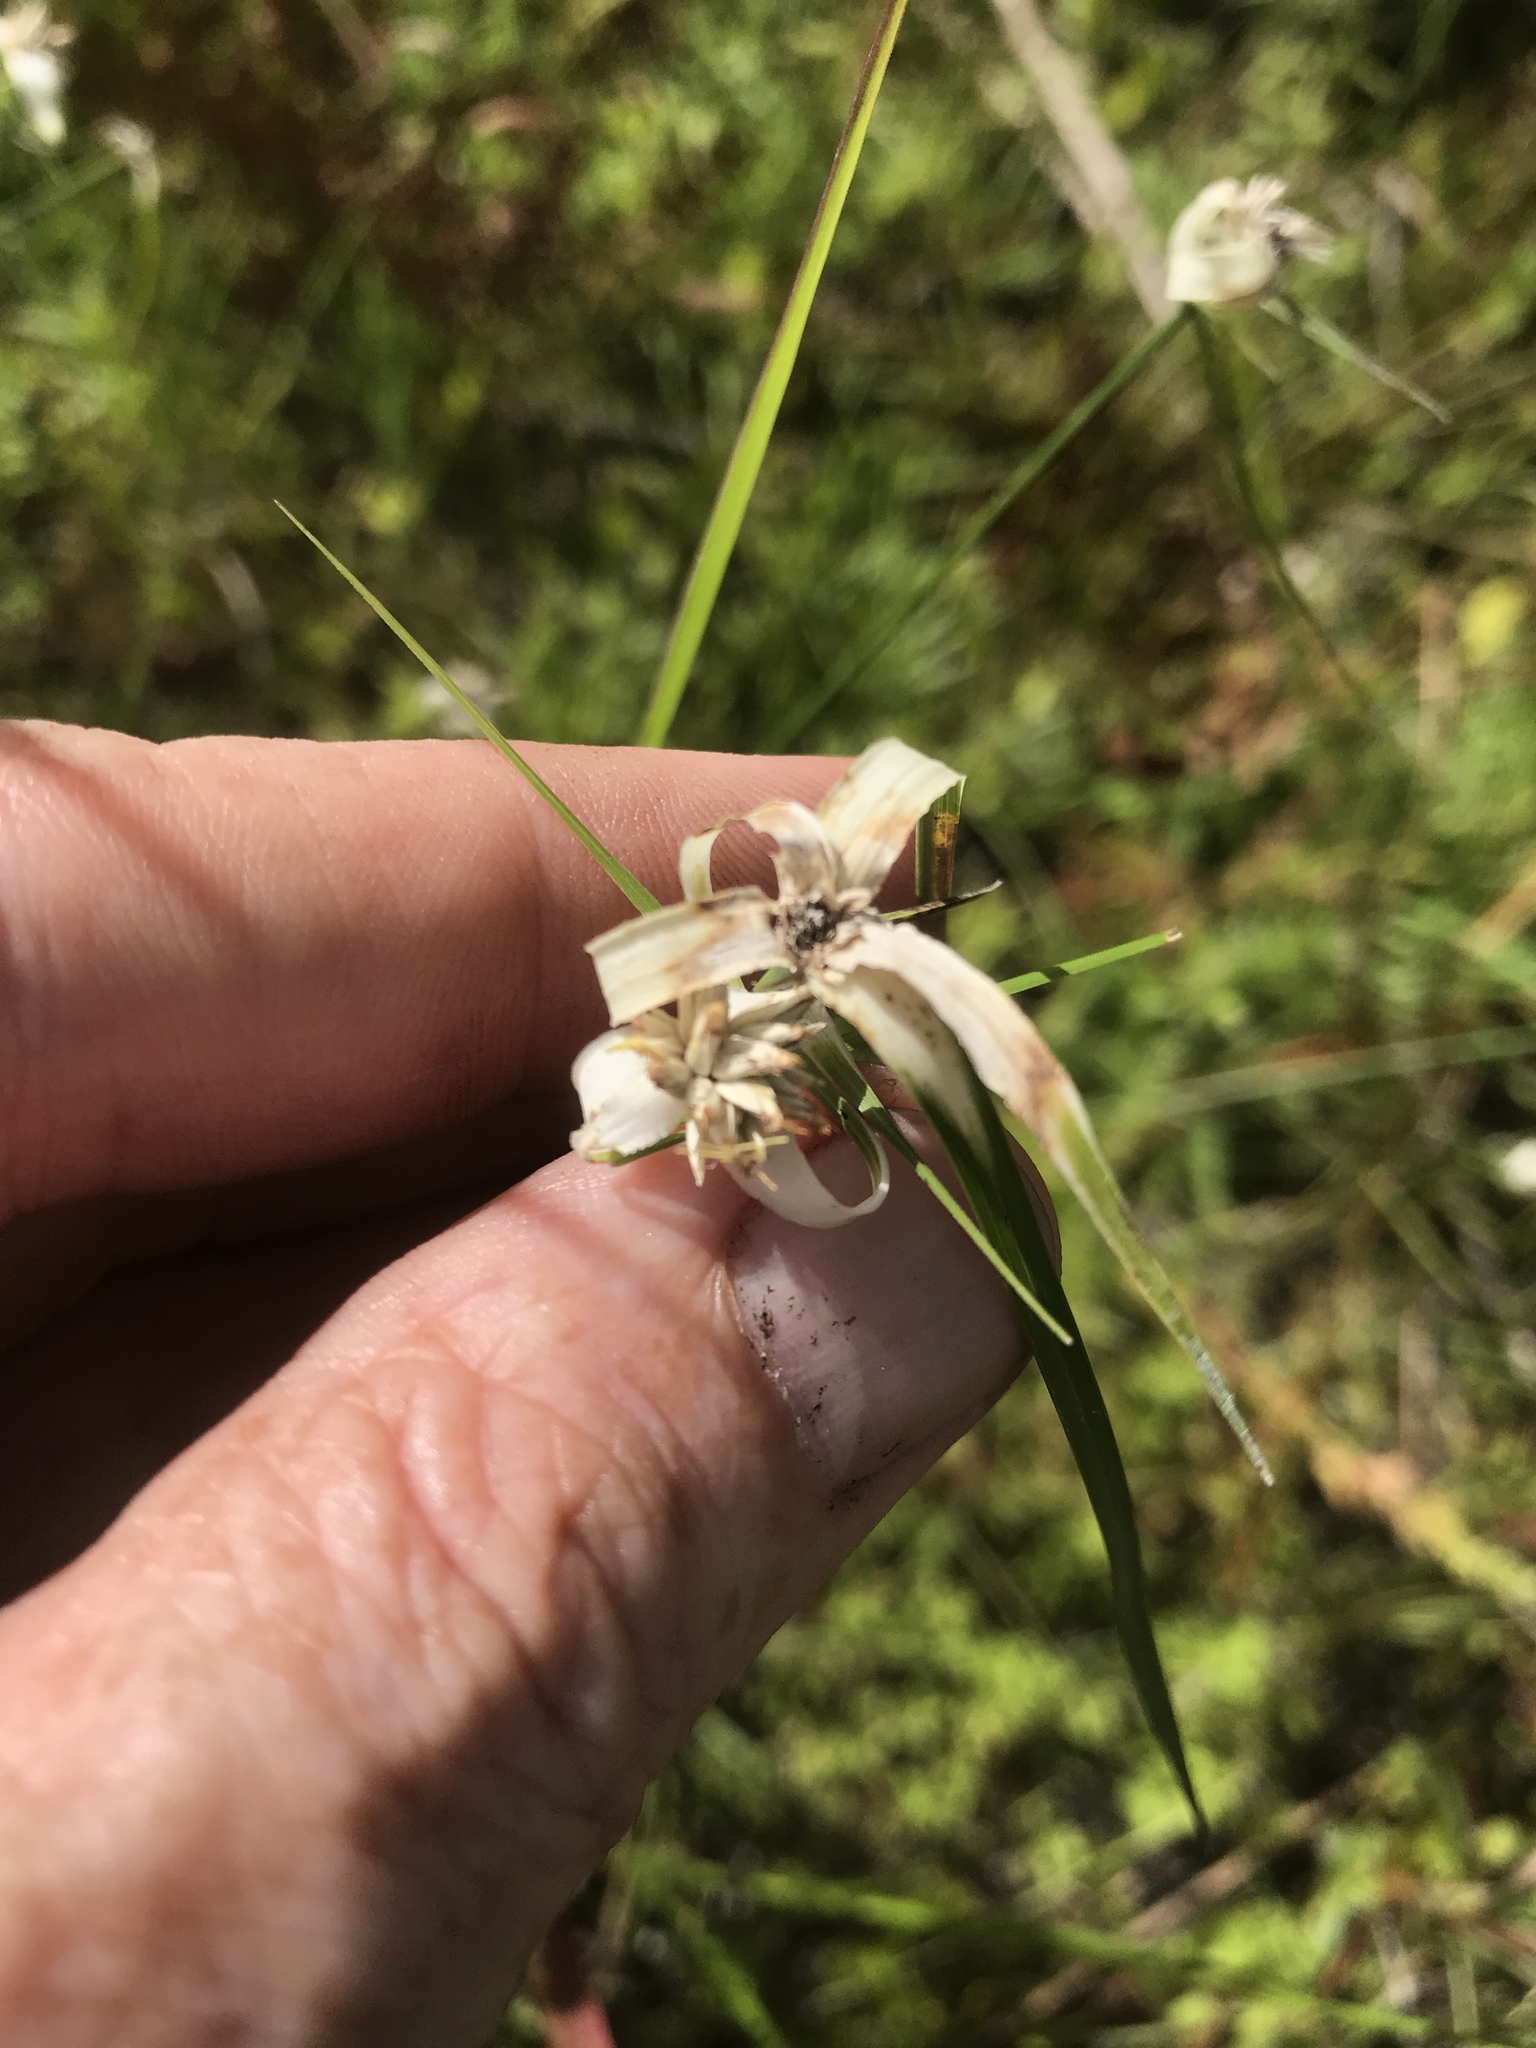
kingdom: Plantae
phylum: Tracheophyta
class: Liliopsida
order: Poales
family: Cyperaceae
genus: Rhynchospora
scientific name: Rhynchospora colorata
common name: Star sedge
